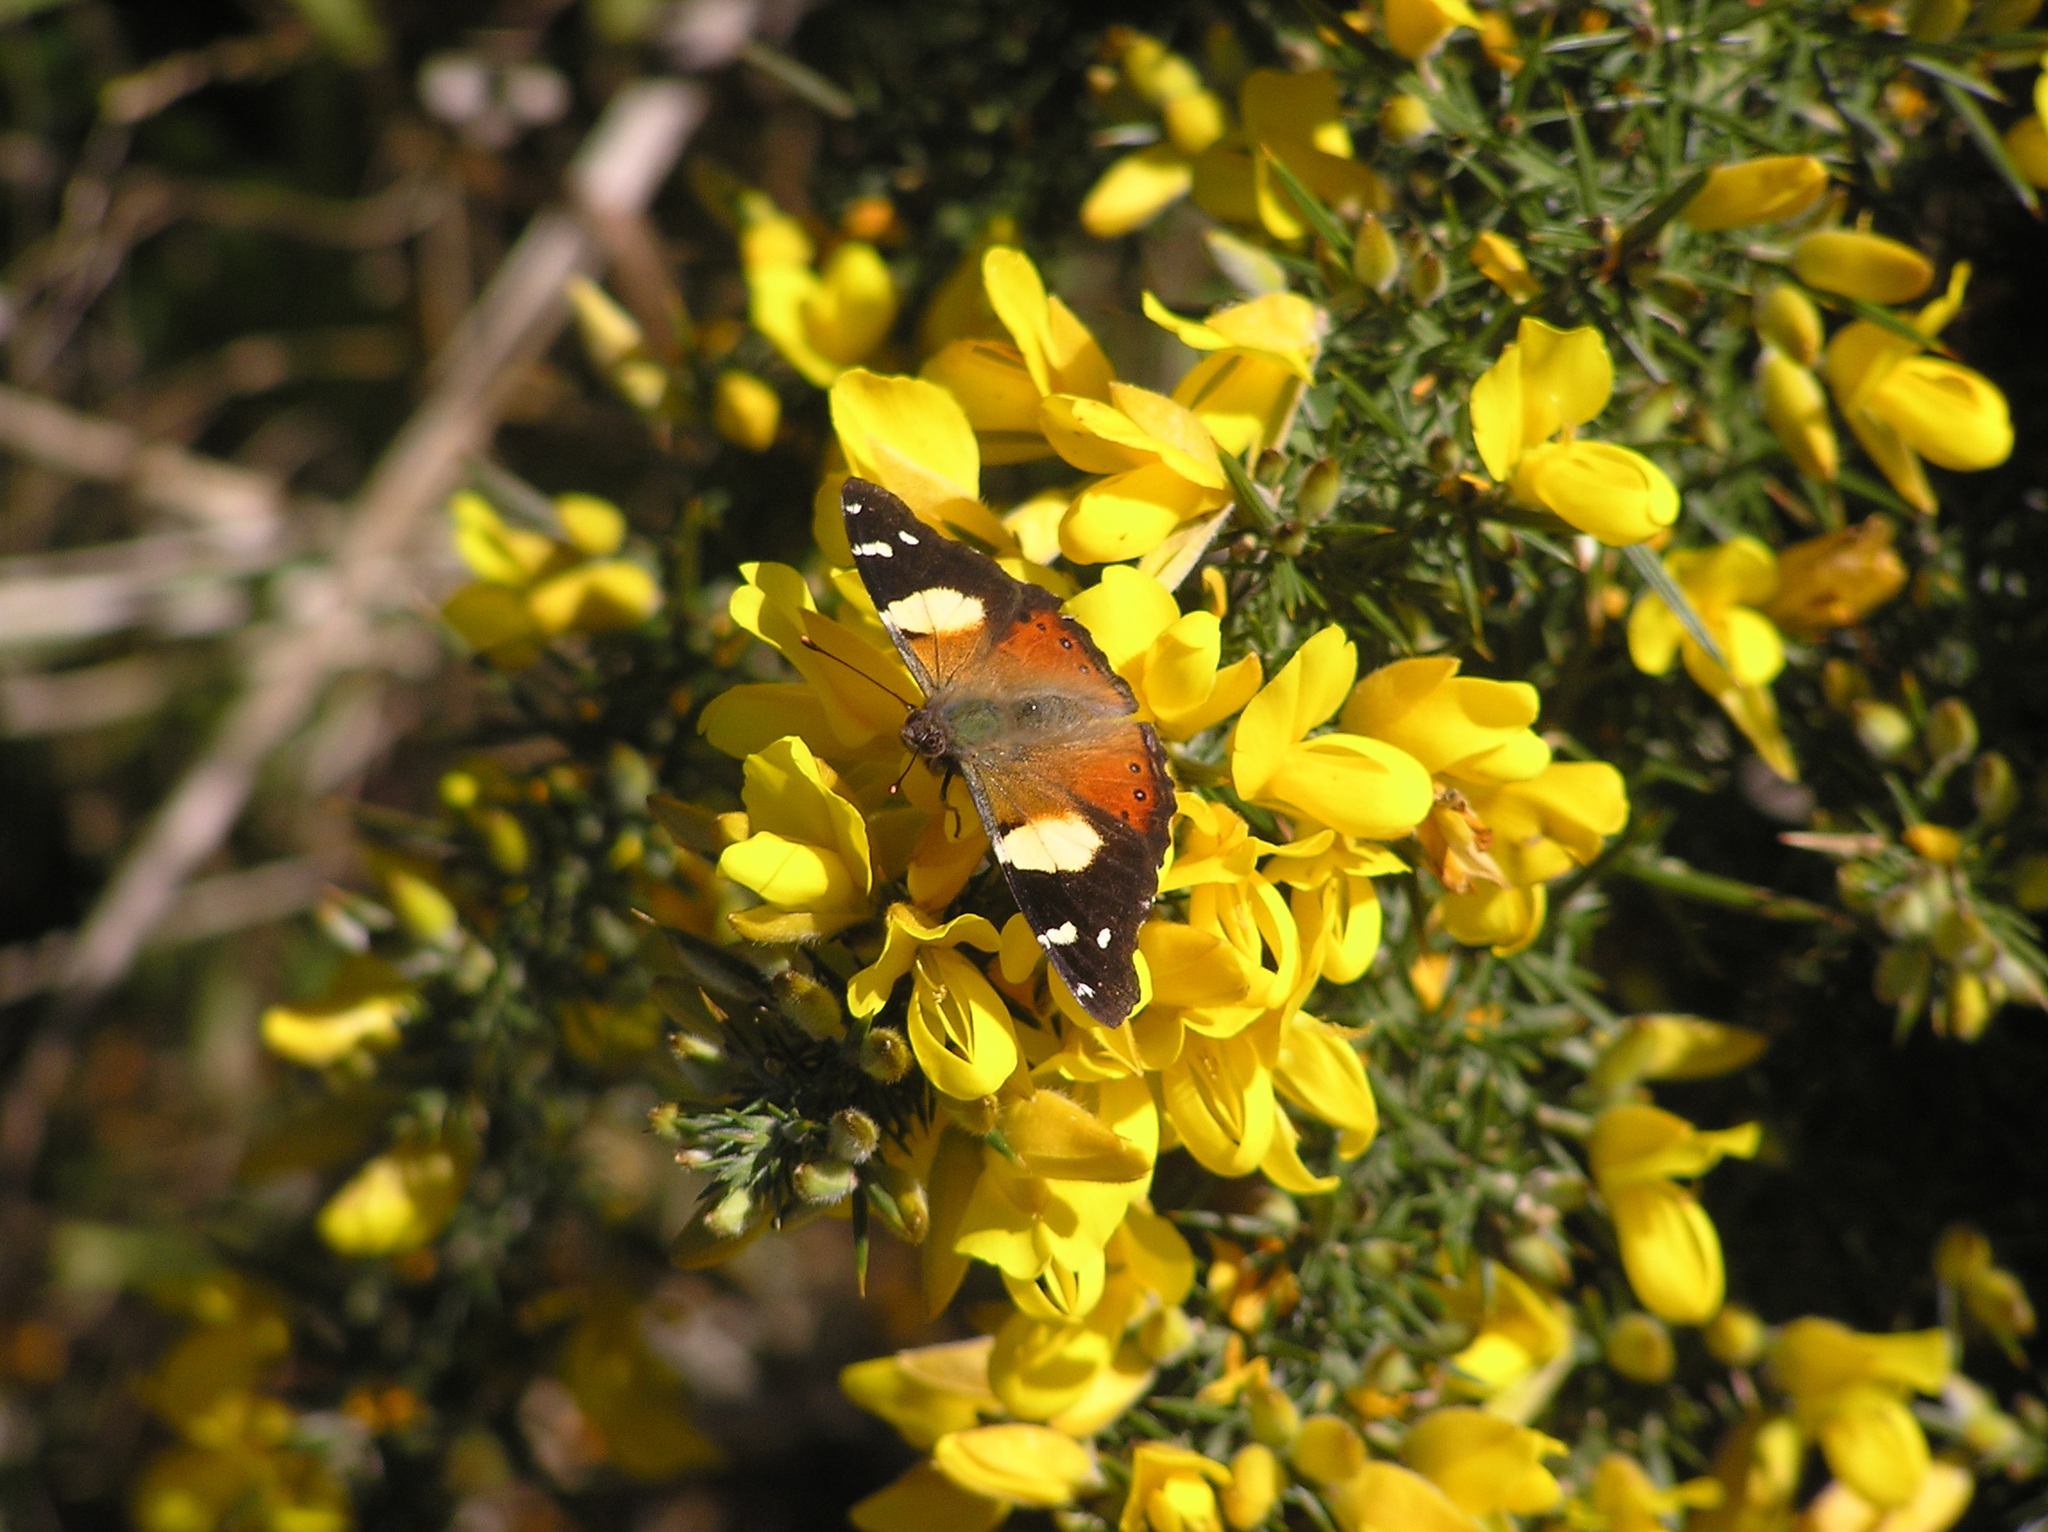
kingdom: Animalia
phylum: Arthropoda
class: Insecta
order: Lepidoptera
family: Nymphalidae
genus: Vanessa
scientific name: Vanessa itea
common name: Yellow admiral
